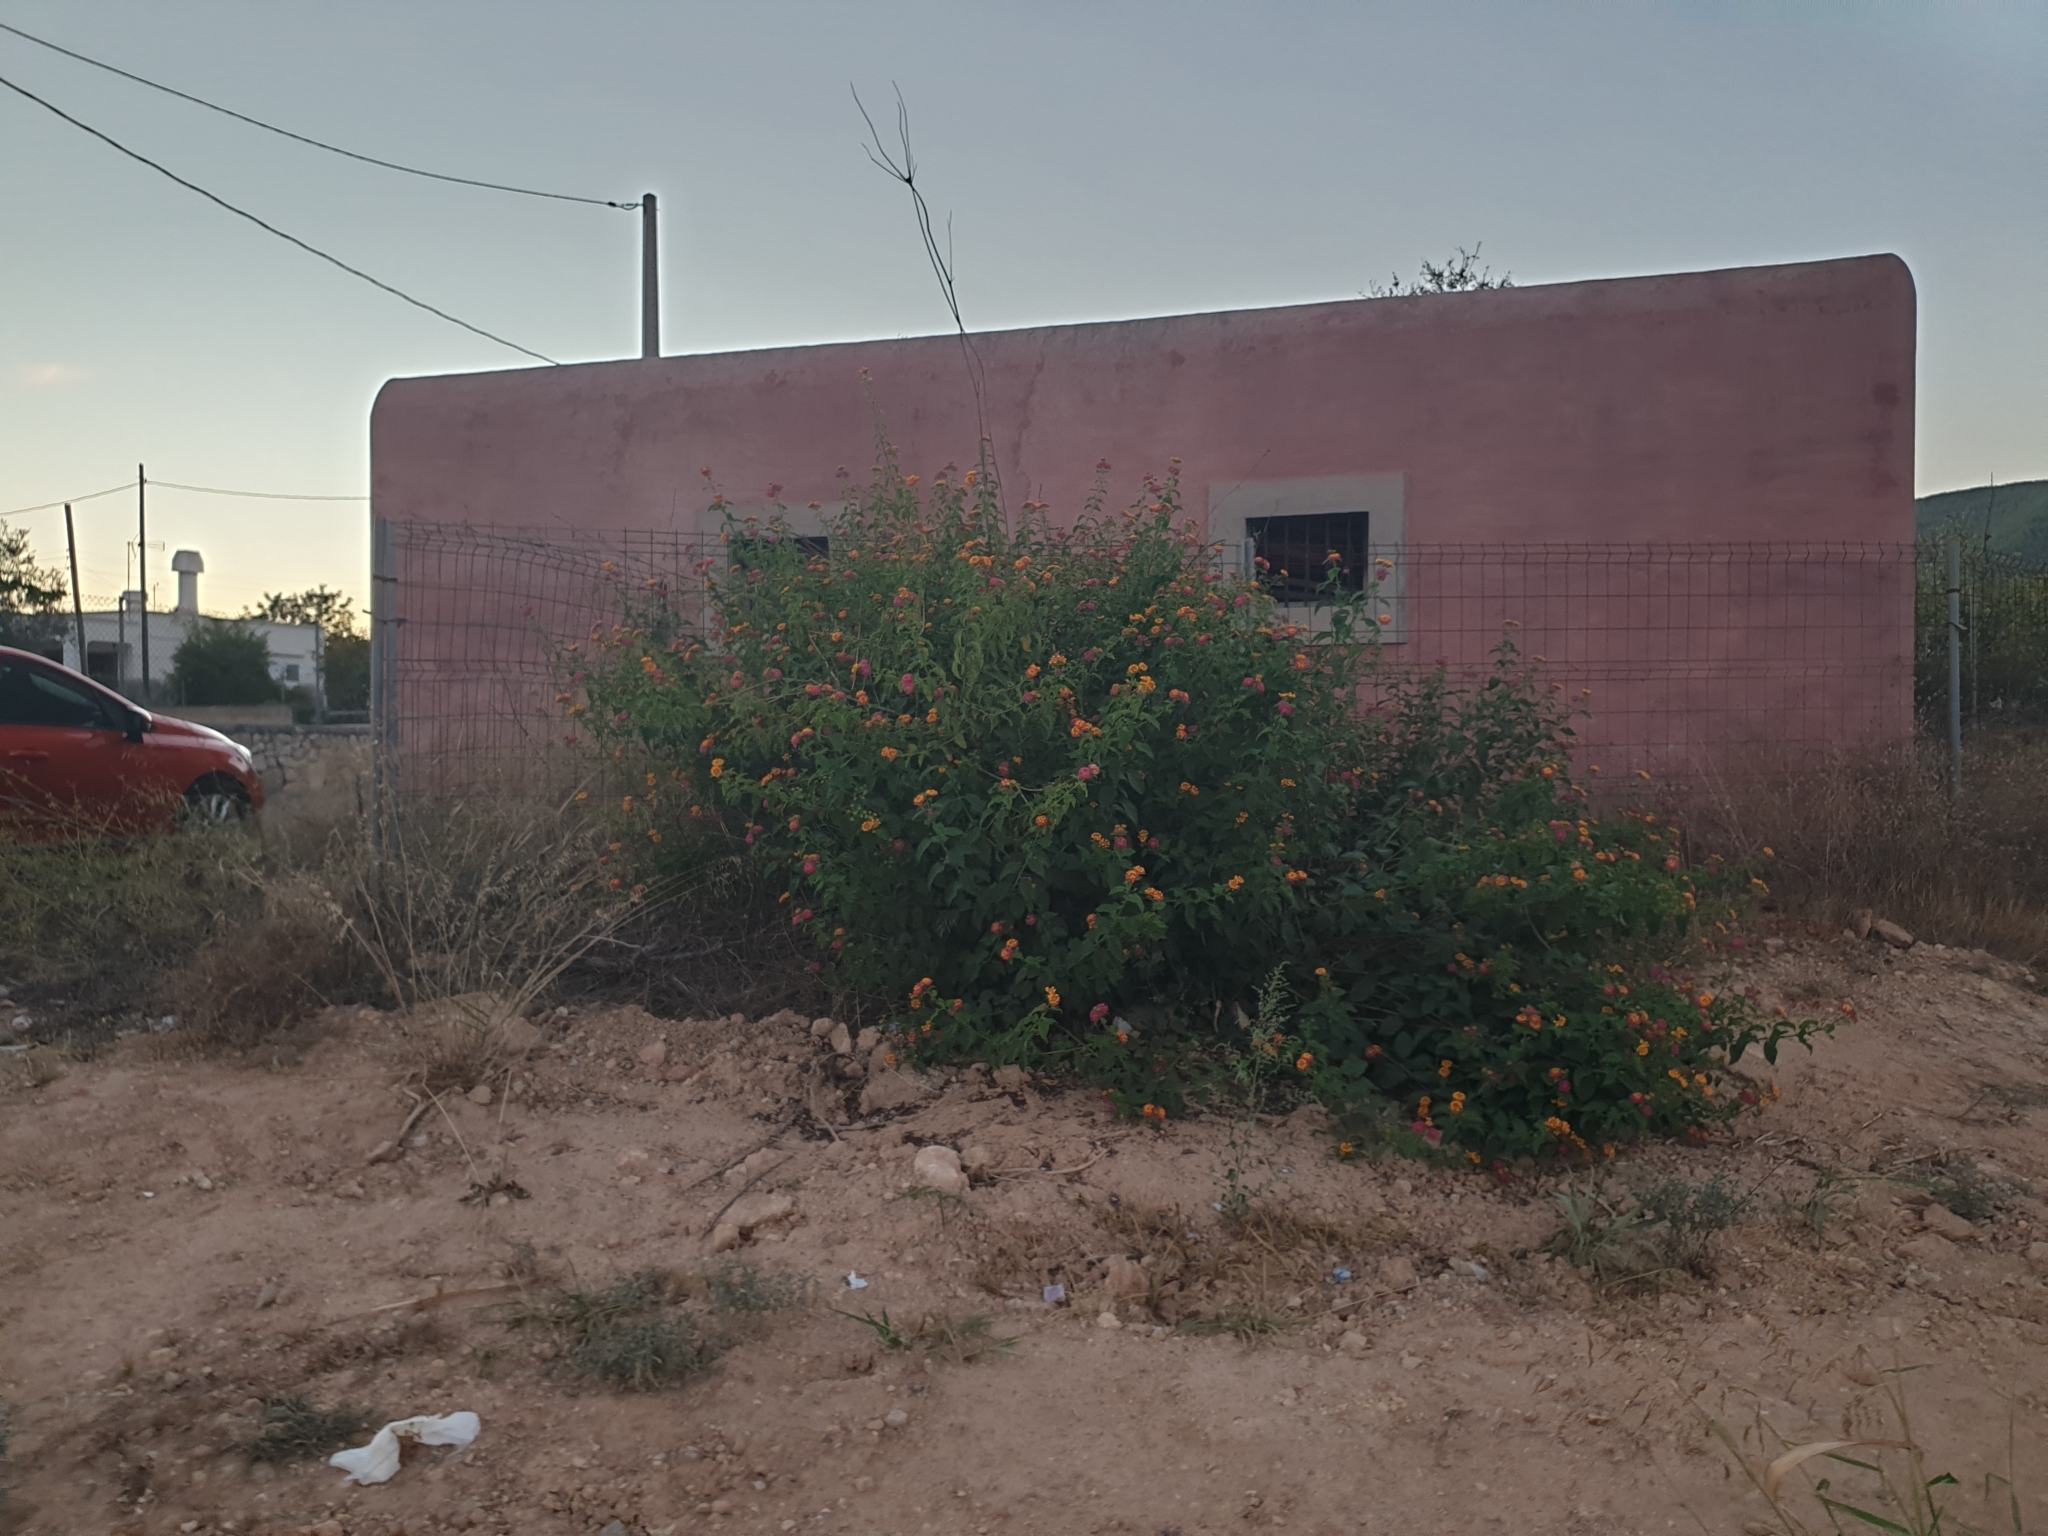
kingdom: Plantae
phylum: Tracheophyta
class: Magnoliopsida
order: Lamiales
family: Verbenaceae
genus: Lantana
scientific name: Lantana camara
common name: Lantana
